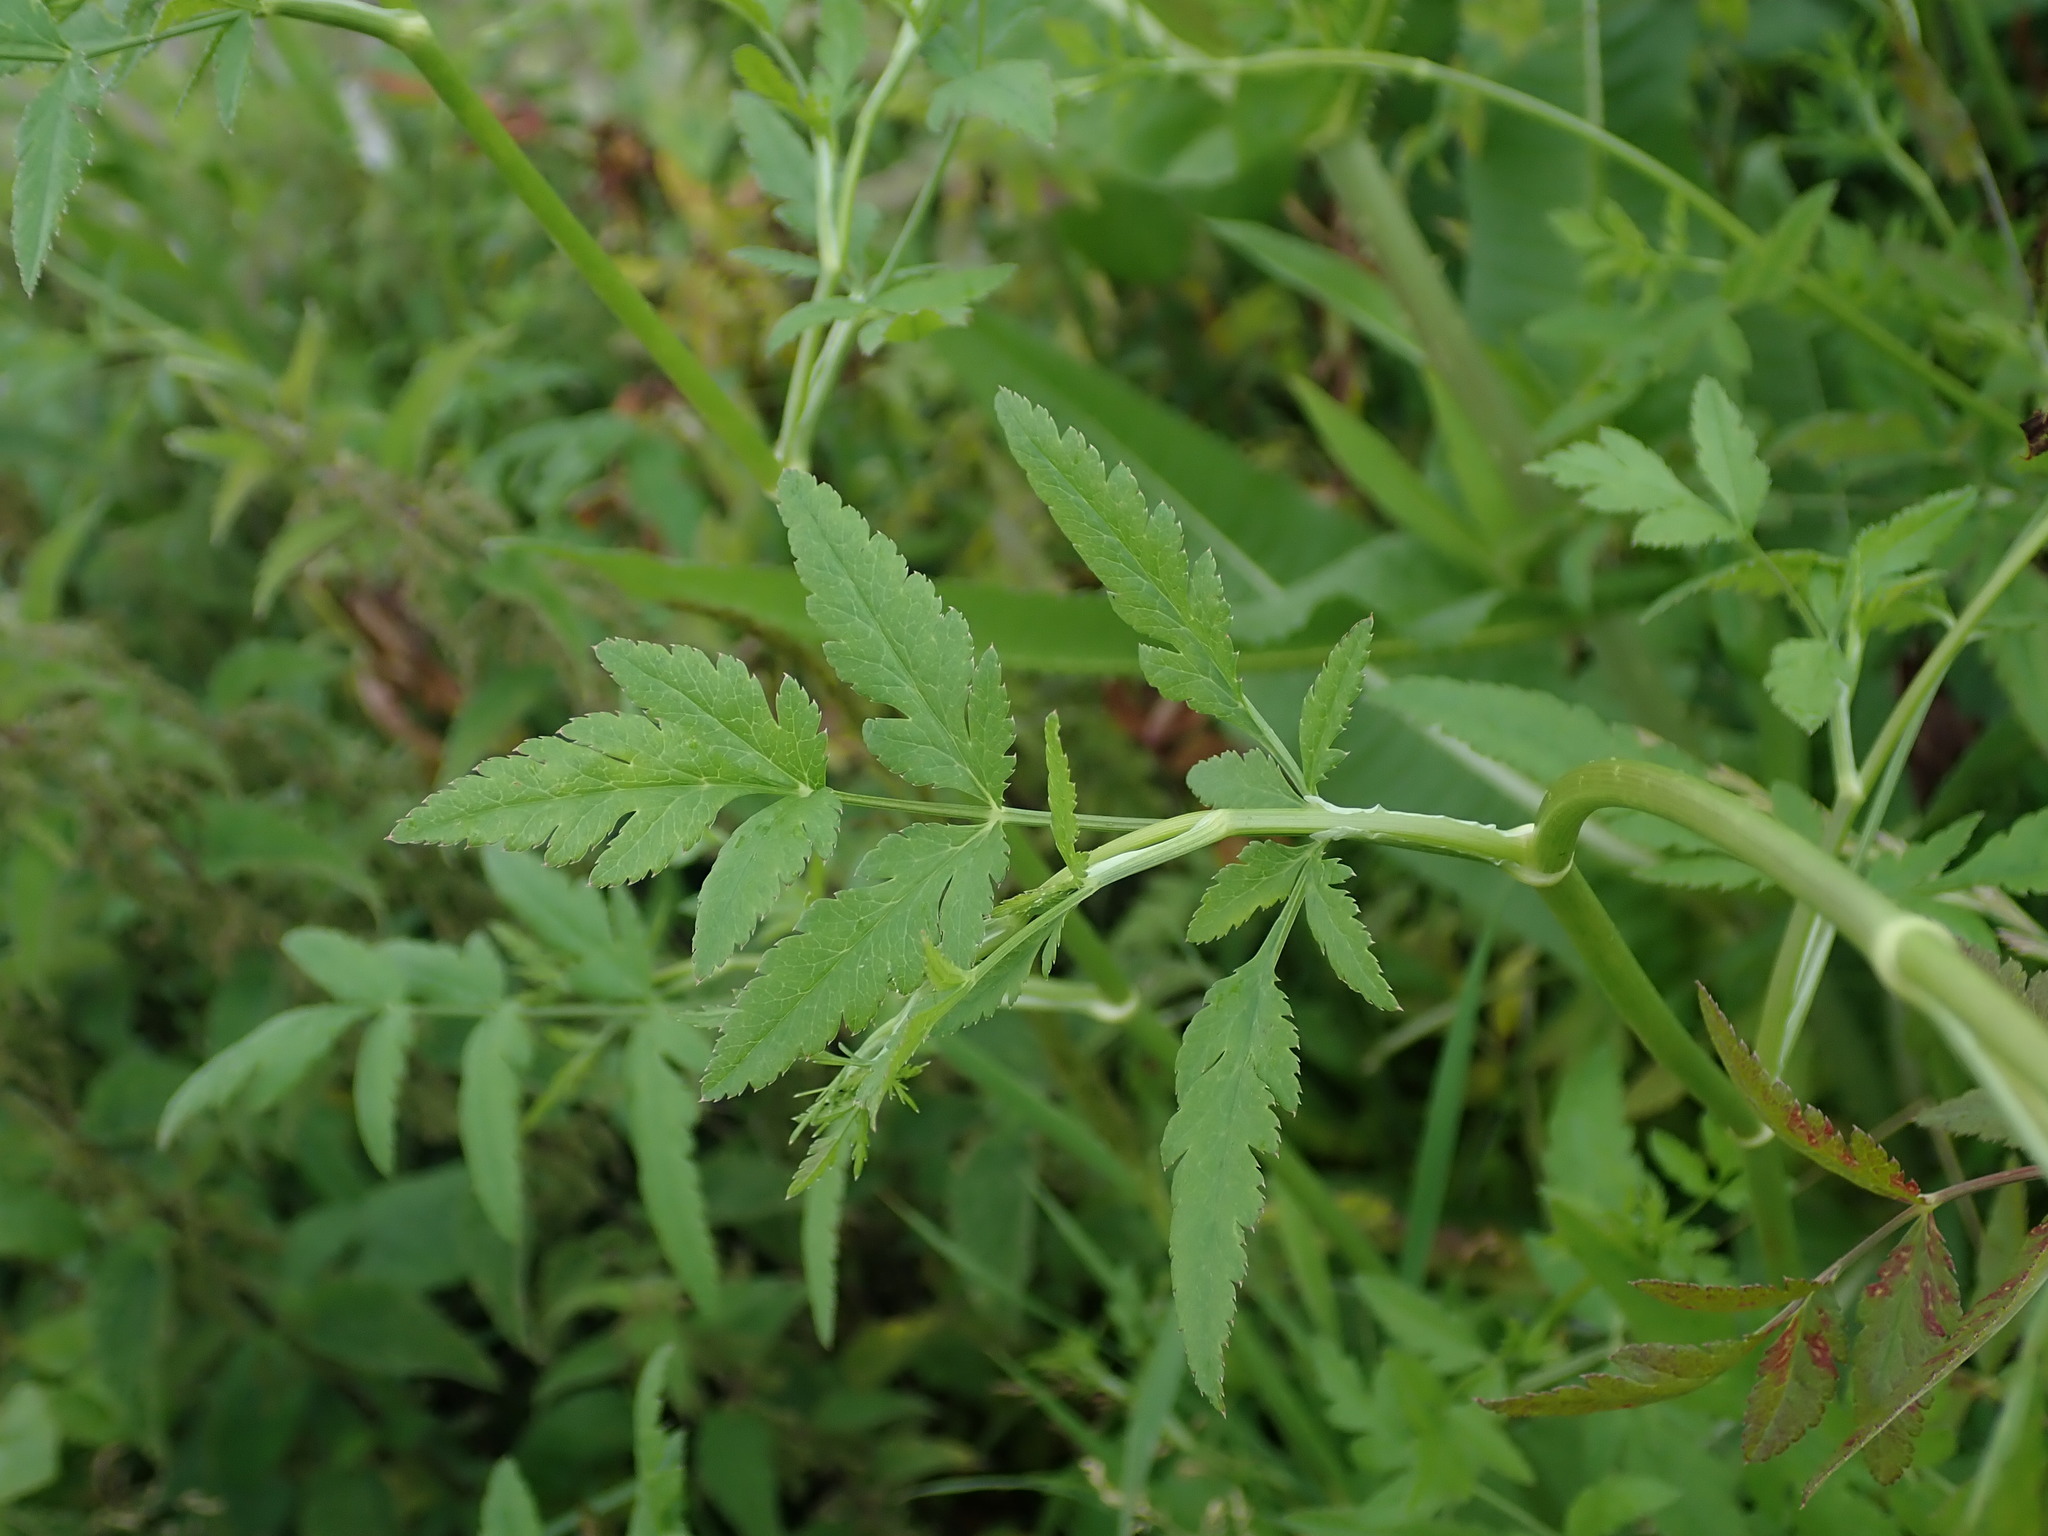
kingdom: Plantae
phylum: Tracheophyta
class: Magnoliopsida
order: Apiales
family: Apiaceae
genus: Sison
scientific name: Sison amomum
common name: Stone-parsley
